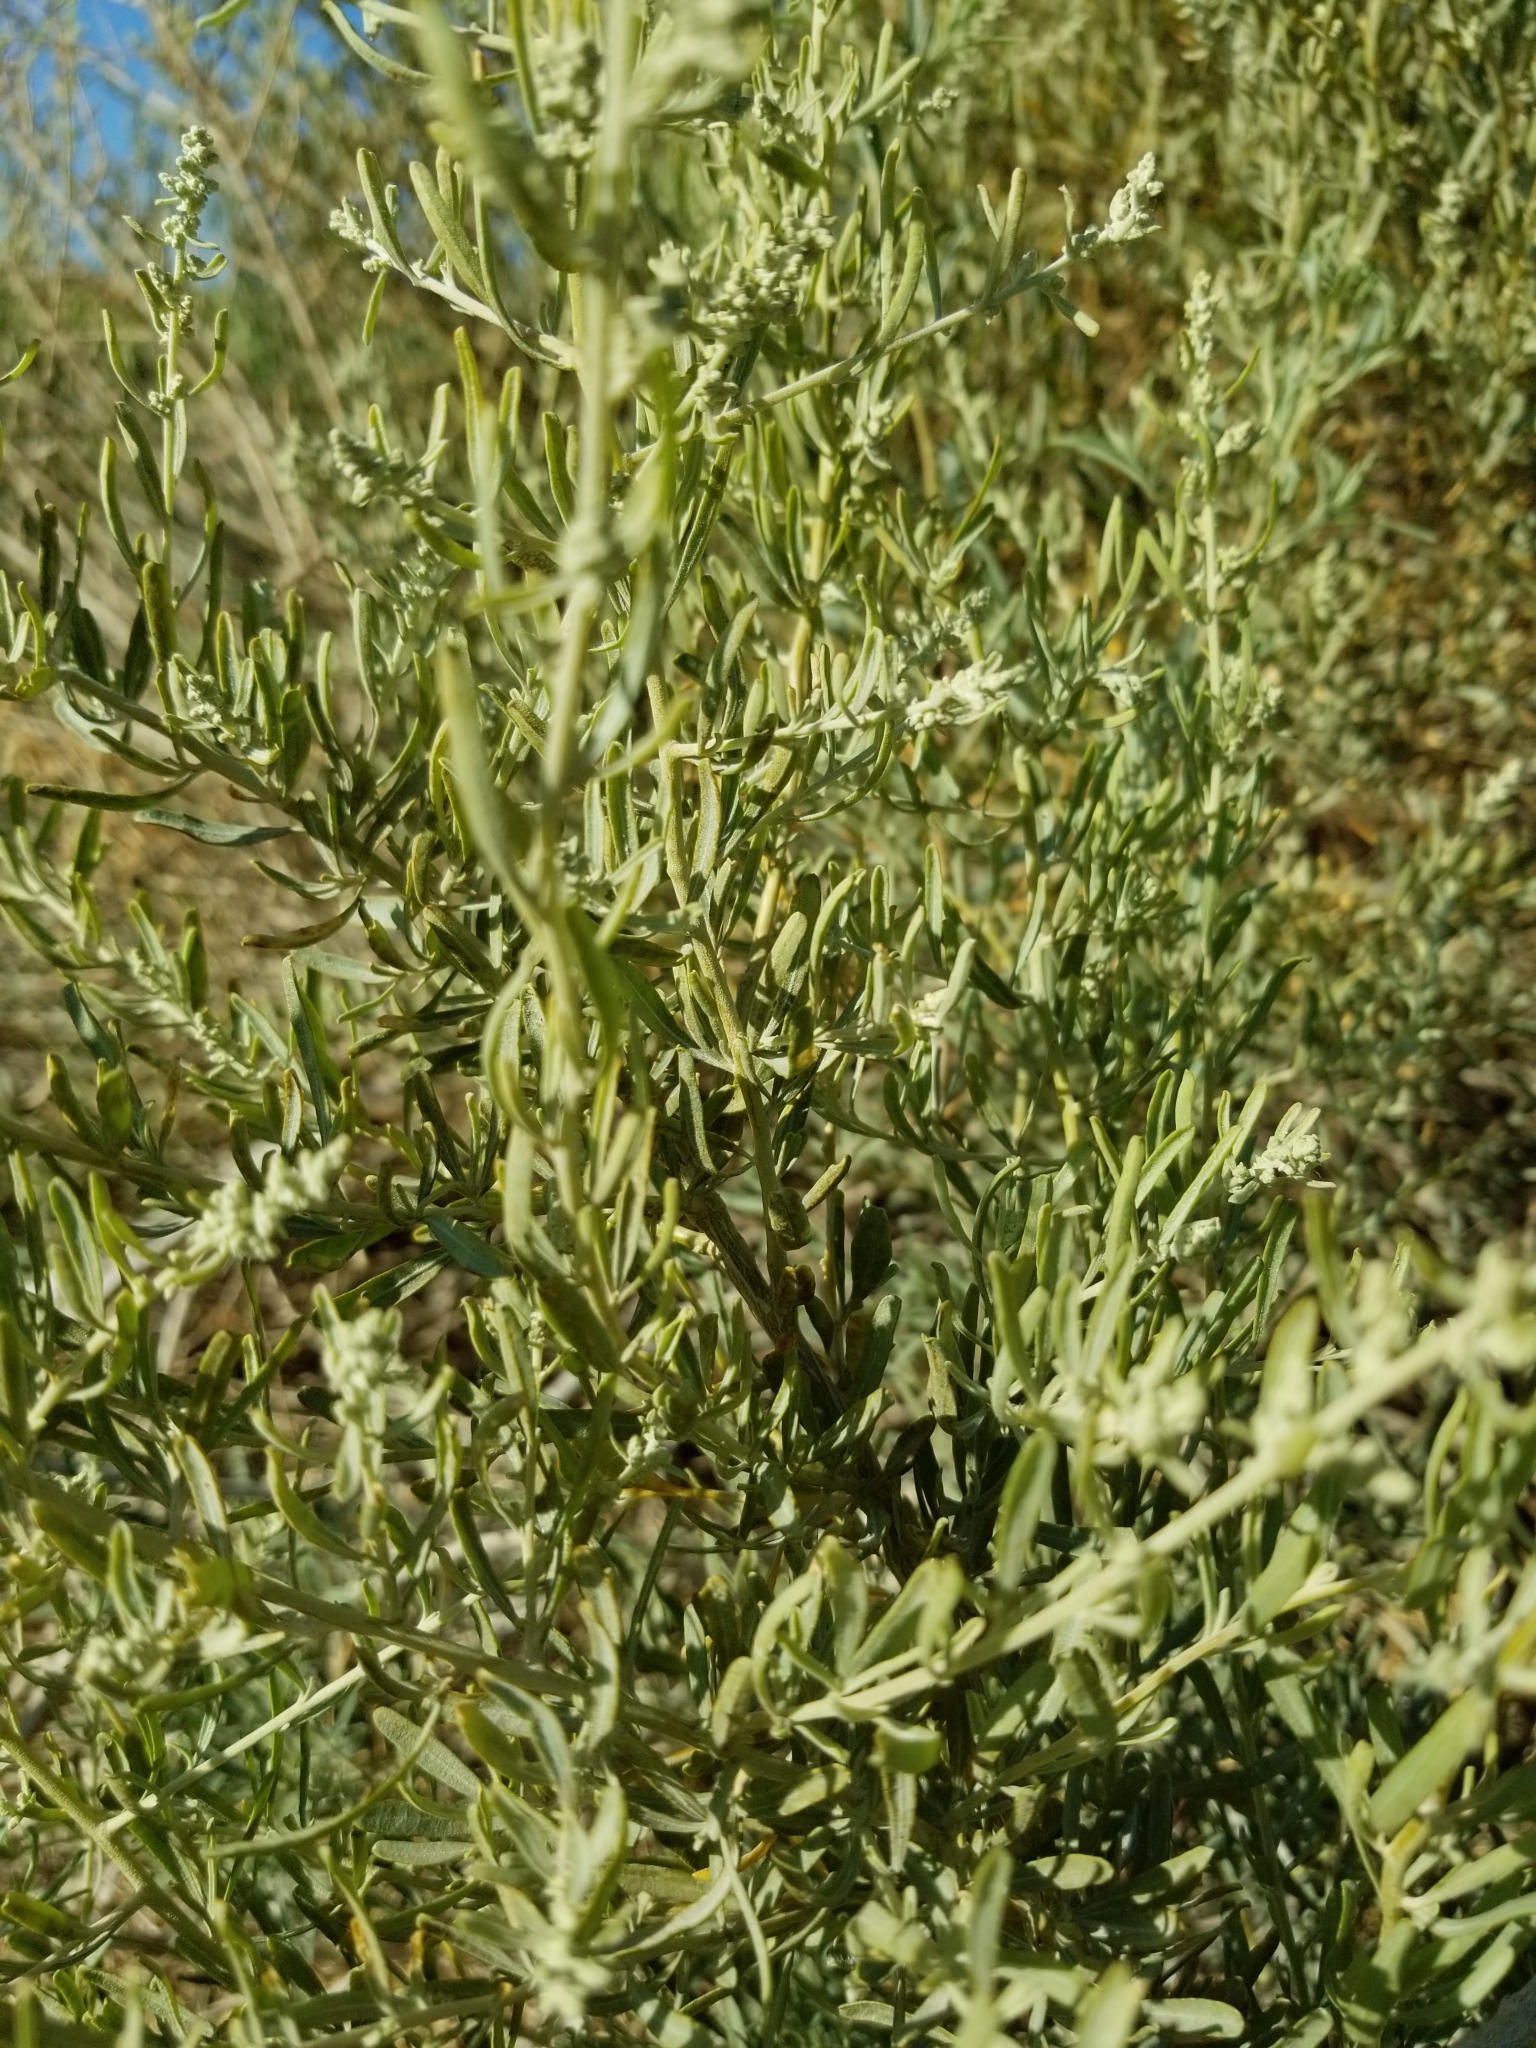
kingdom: Plantae
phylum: Tracheophyta
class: Magnoliopsida
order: Caryophyllales
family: Amaranthaceae
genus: Atriplex
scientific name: Atriplex canescens
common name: Four-wing saltbush
